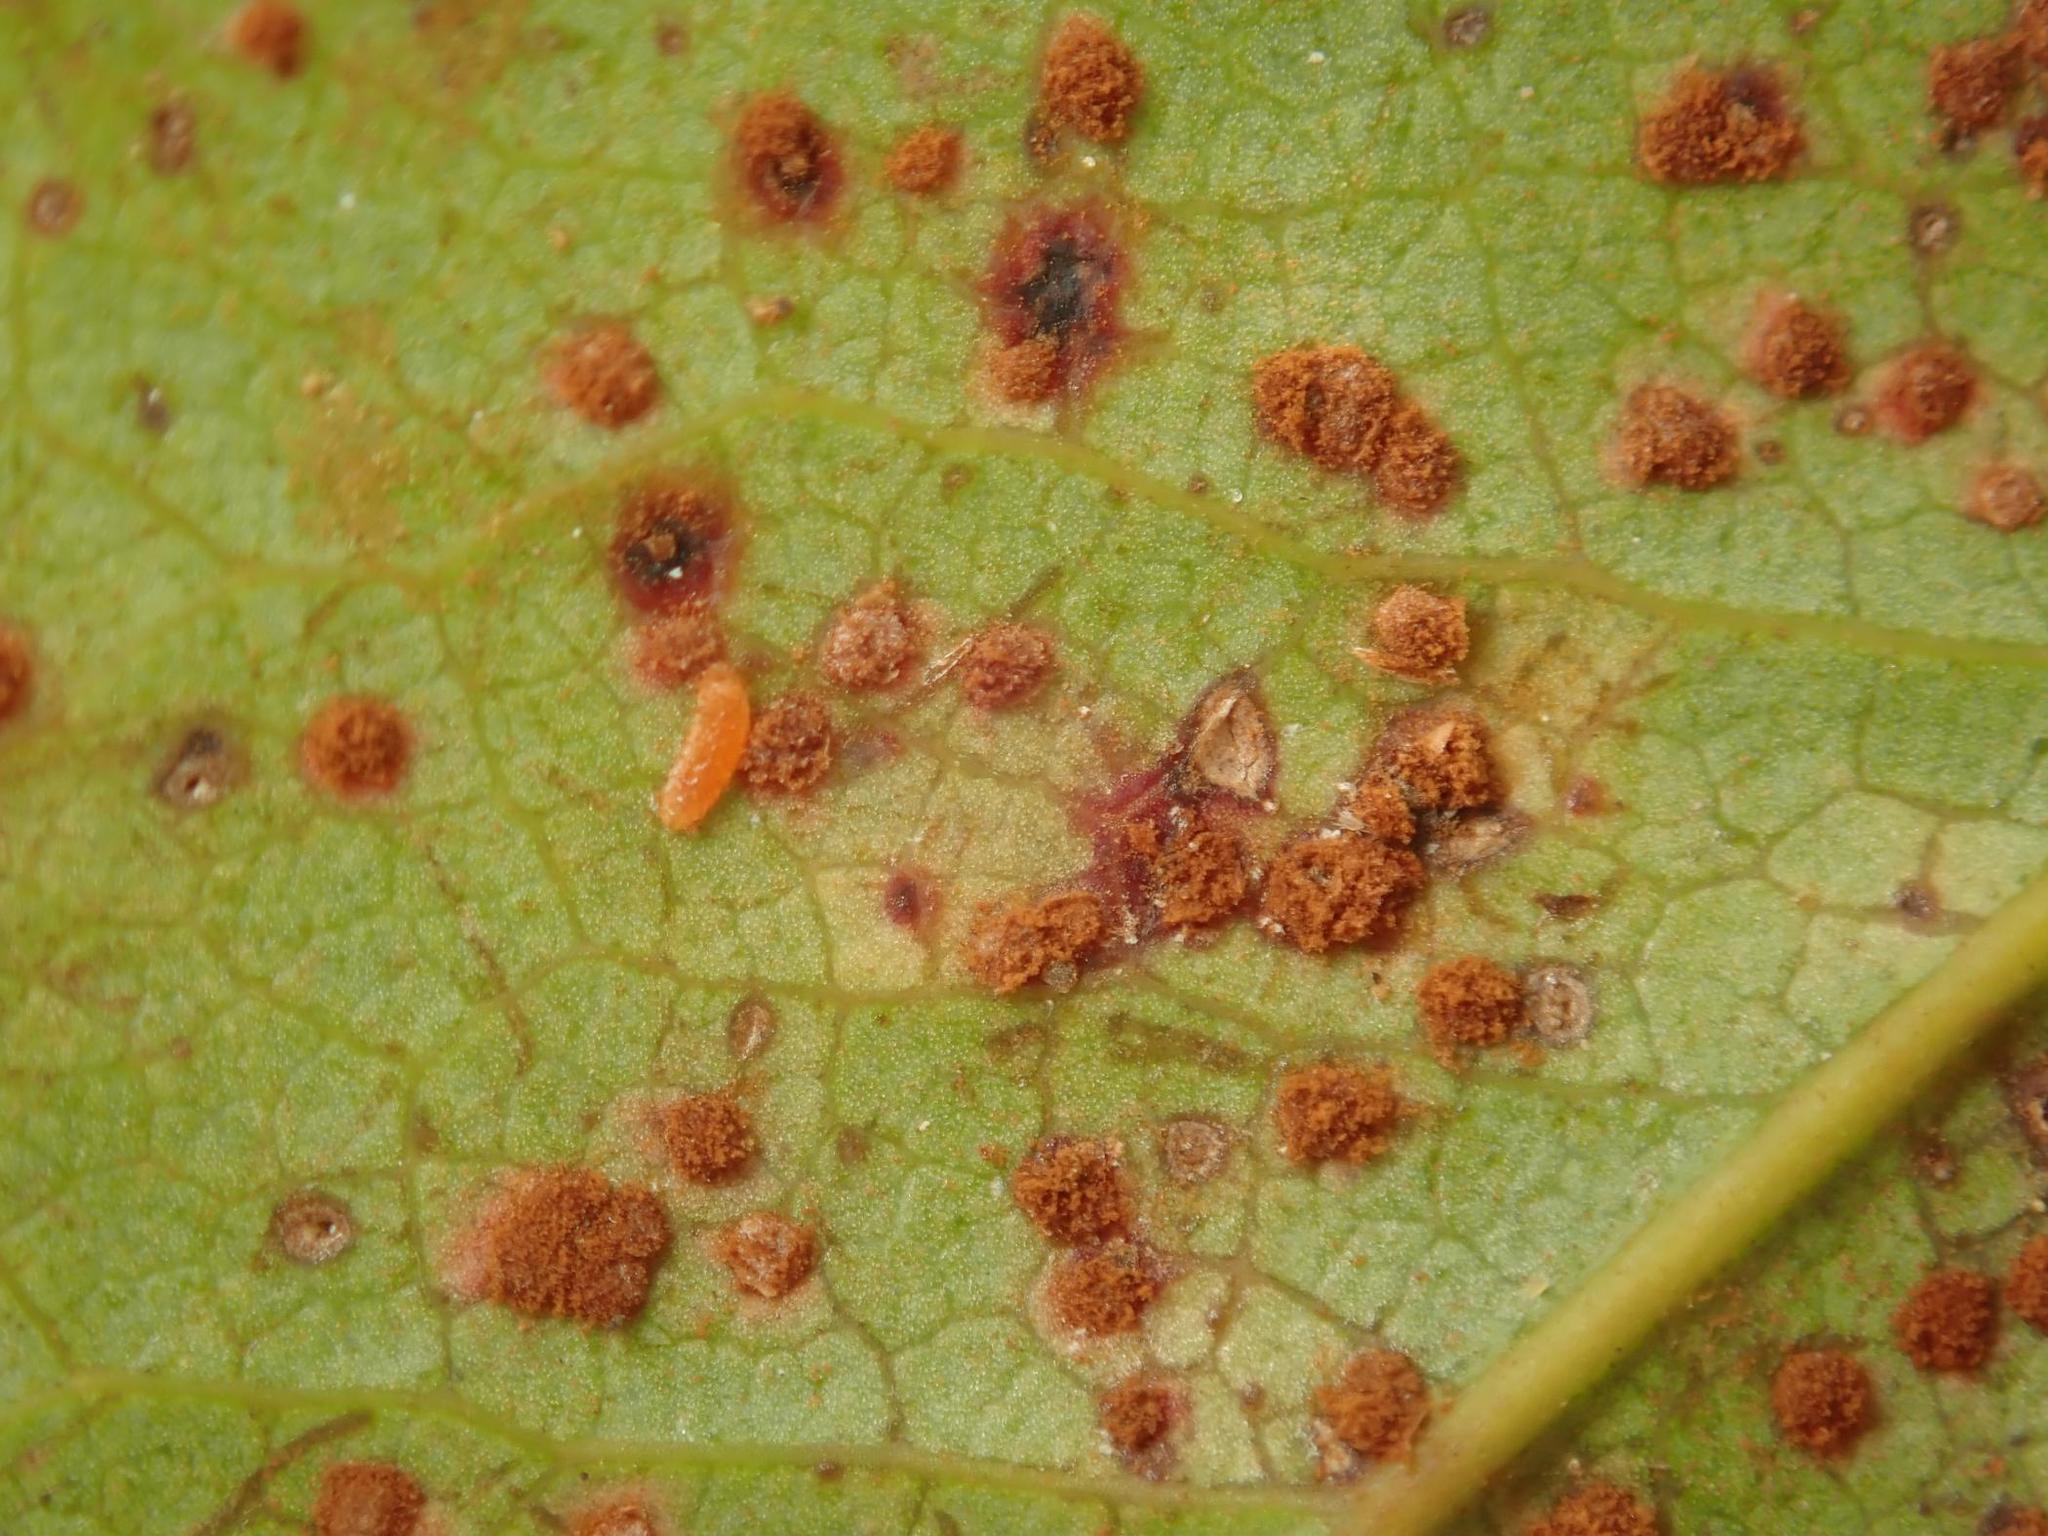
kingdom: Fungi
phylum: Basidiomycota
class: Pucciniomycetes
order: Pucciniales
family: Pucciniaceae
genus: Cumminsiella
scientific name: Cumminsiella mirabilissima
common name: Mahonia rust
